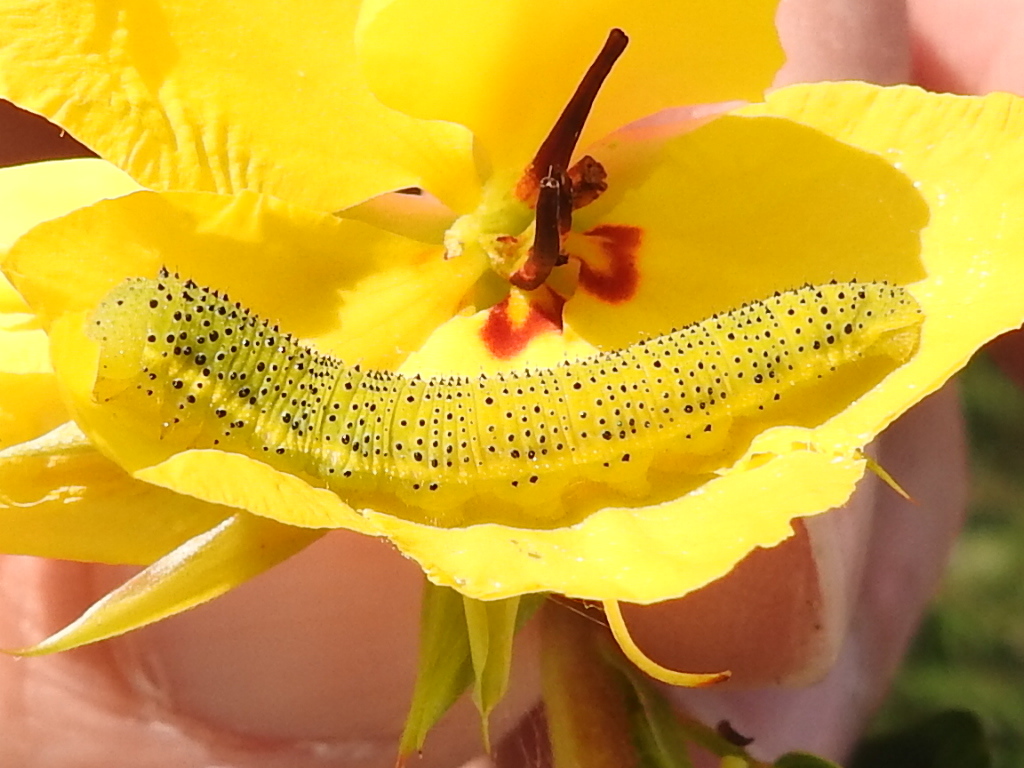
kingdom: Animalia
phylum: Arthropoda
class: Insecta
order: Lepidoptera
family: Pieridae
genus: Phoebis
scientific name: Phoebis sennae
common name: Cloudless sulphur
